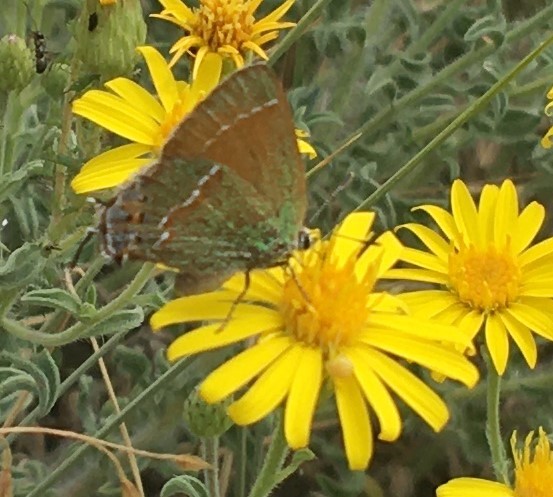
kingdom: Animalia
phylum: Arthropoda
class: Insecta
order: Lepidoptera
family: Lycaenidae
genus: Mitoura
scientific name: Mitoura gryneus
